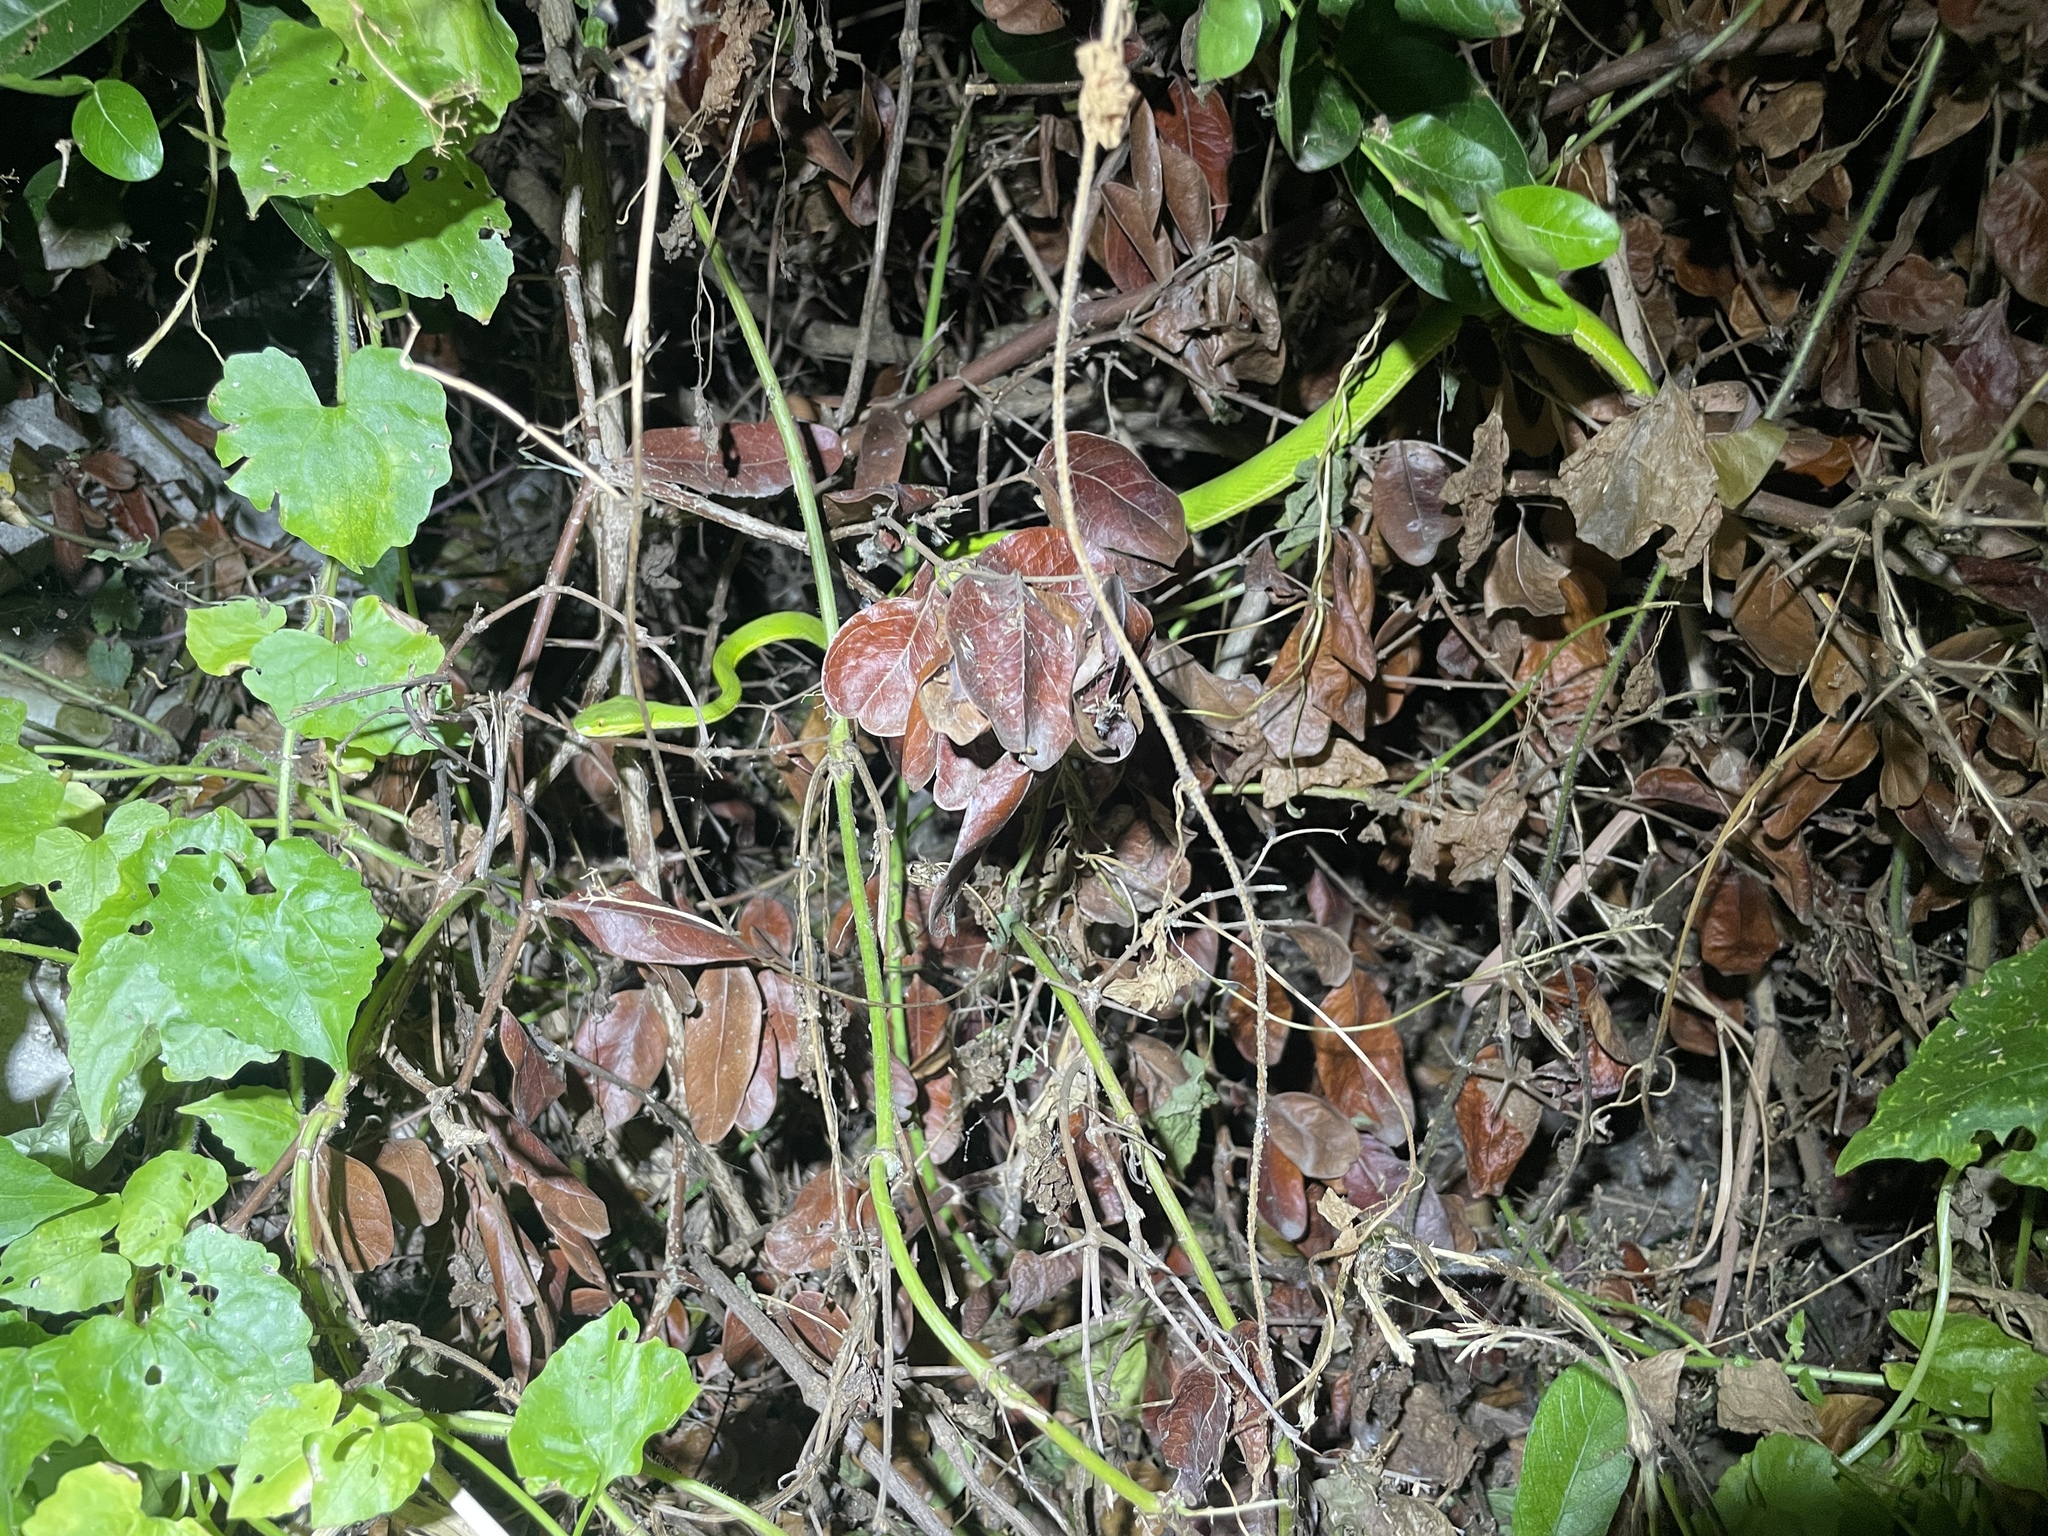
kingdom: Animalia
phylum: Chordata
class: Squamata
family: Viperidae
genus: Trimeresurus
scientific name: Trimeresurus albolabris
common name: White-lipped pitviper
